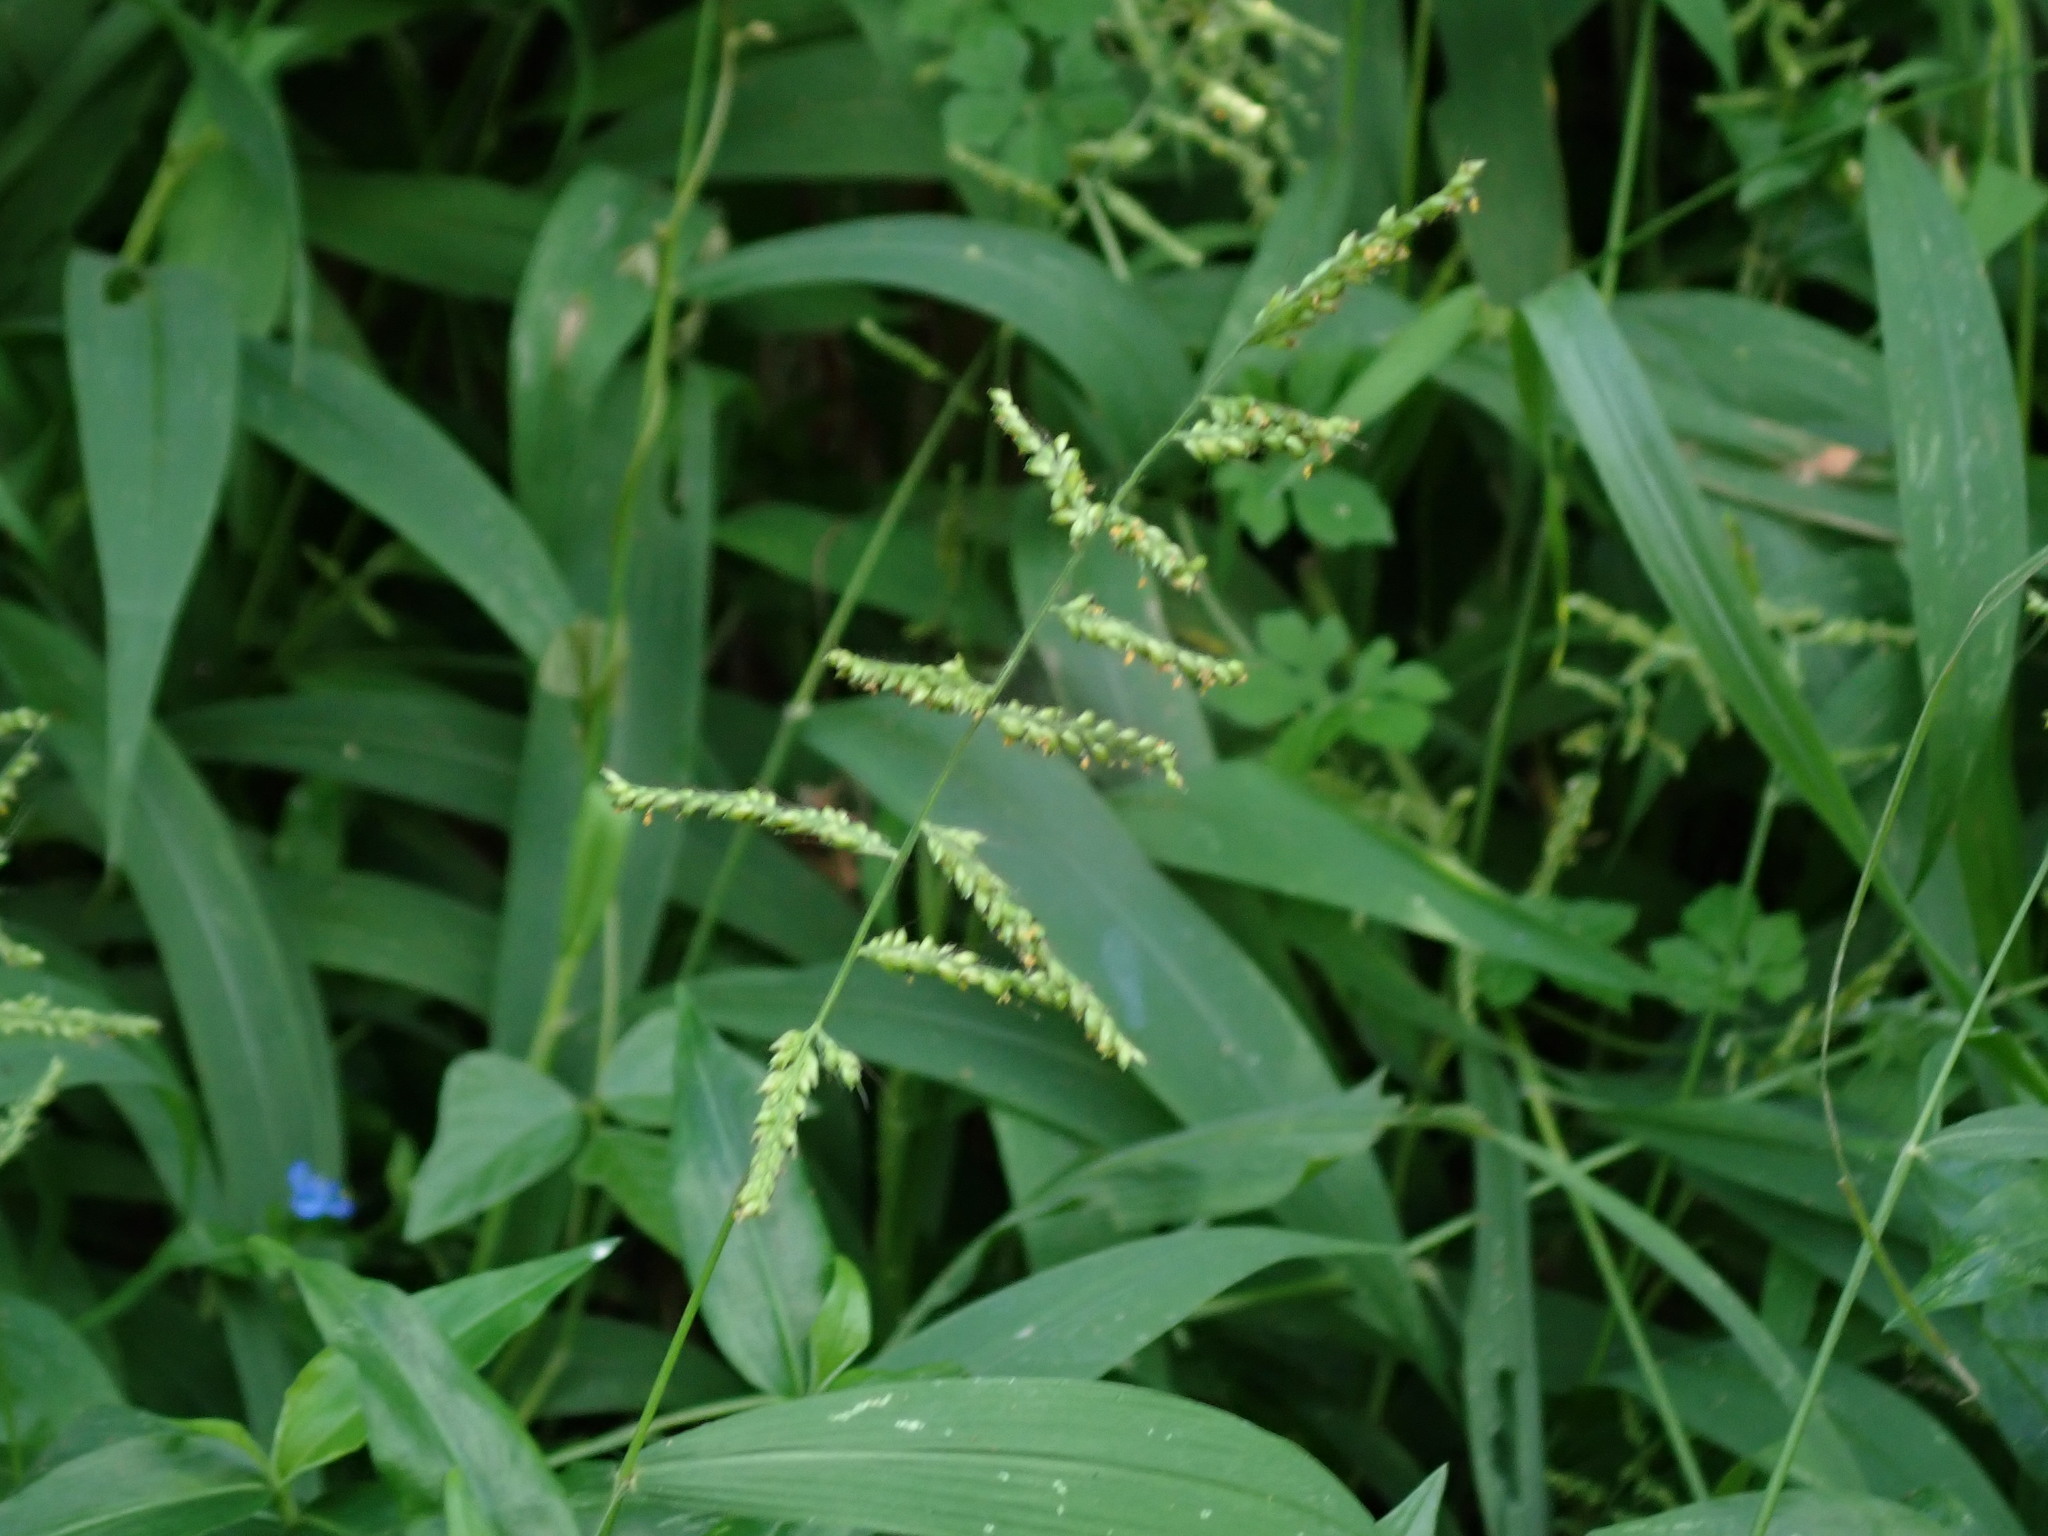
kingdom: Plantae
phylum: Tracheophyta
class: Liliopsida
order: Poales
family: Poaceae
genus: Echinochloa
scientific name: Echinochloa colonum
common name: Jungle rice
